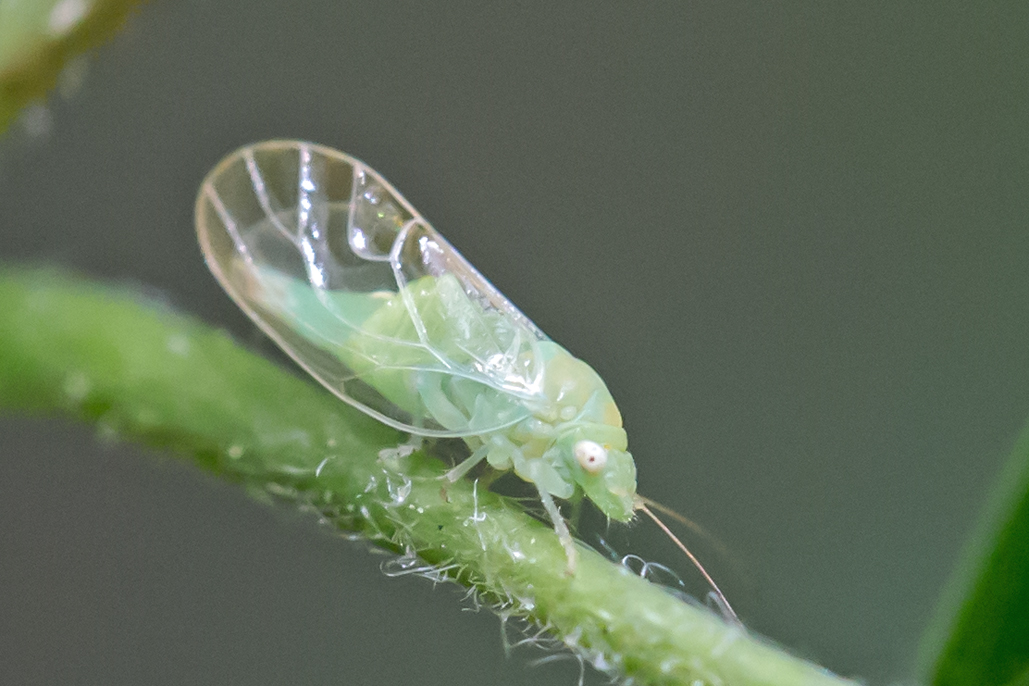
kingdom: Animalia
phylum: Arthropoda
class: Insecta
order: Hemiptera
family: Psyllidae
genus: Psylla
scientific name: Psylla carpinicola
